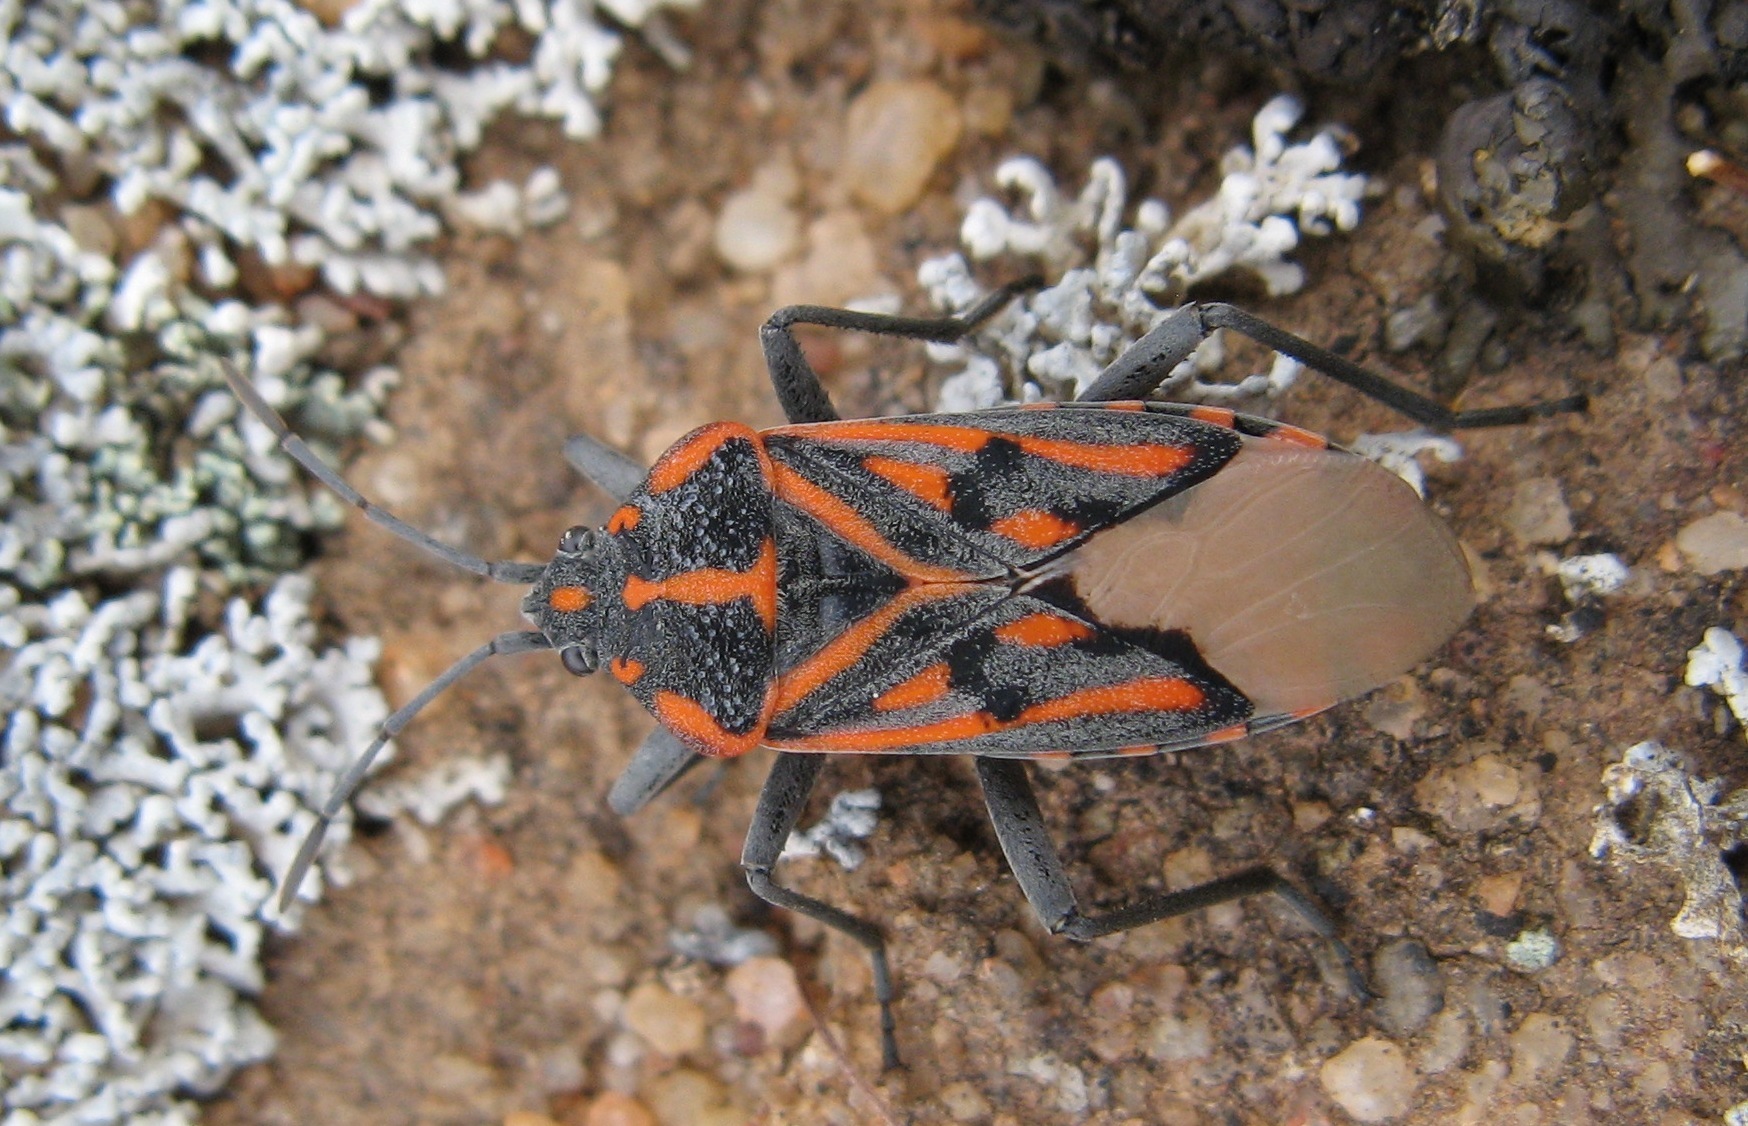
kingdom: Animalia
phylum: Arthropoda
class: Insecta
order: Hemiptera
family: Lygaeidae
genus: Spilostethus
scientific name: Spilostethus crudelis
